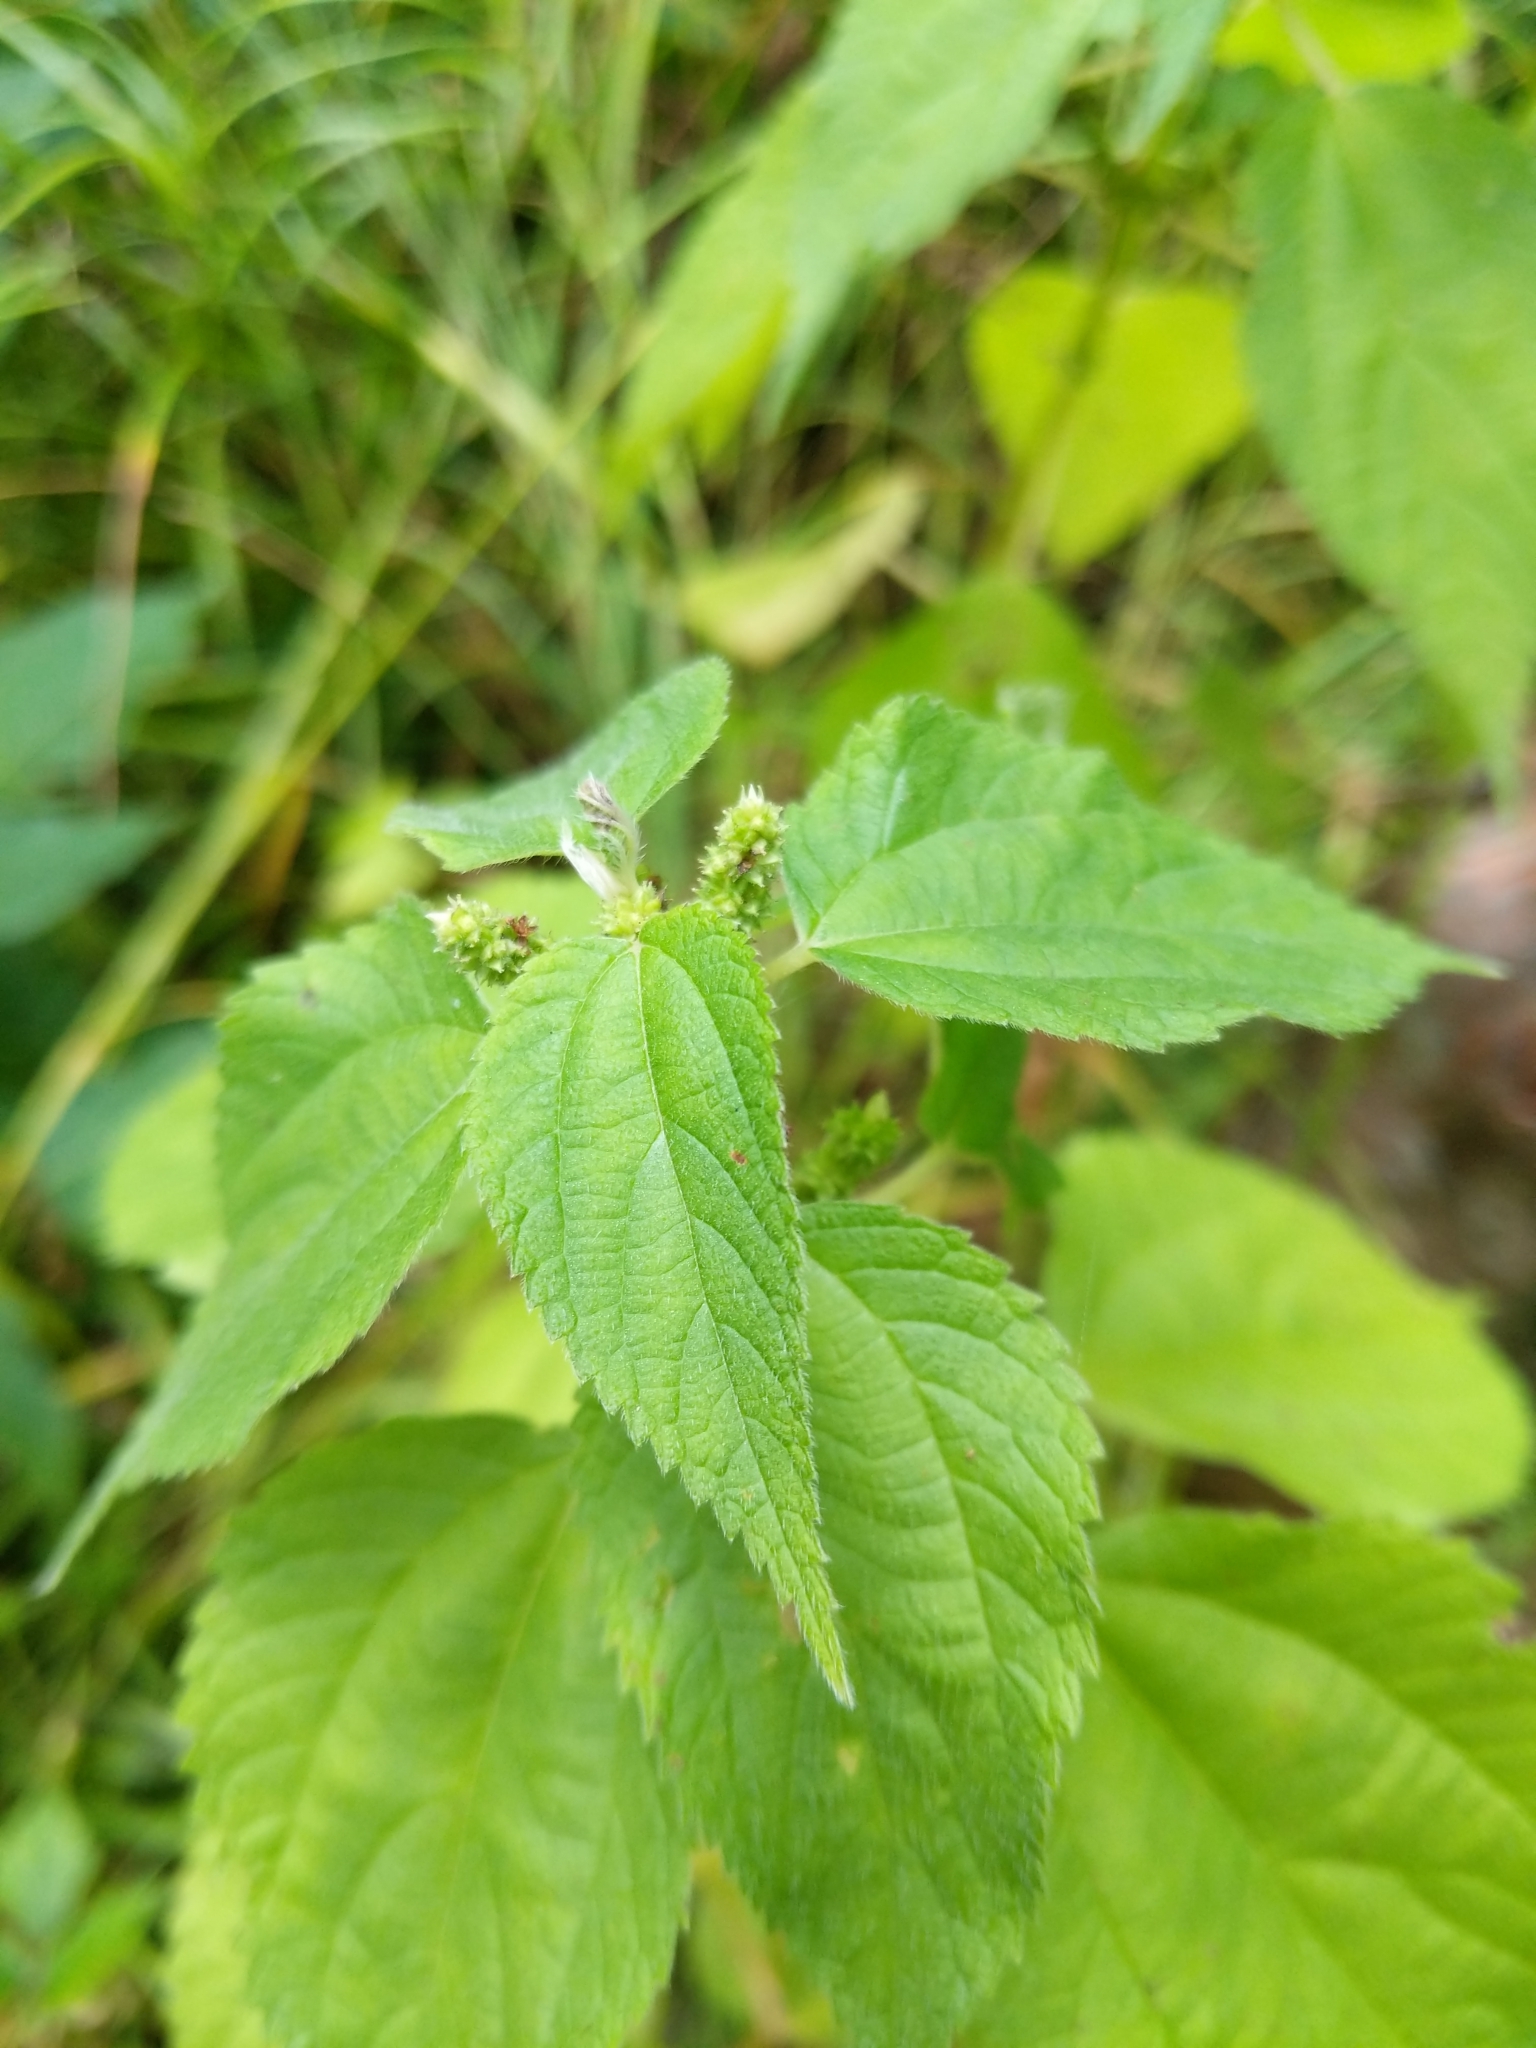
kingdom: Plantae
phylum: Tracheophyta
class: Magnoliopsida
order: Rosales
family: Urticaceae
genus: Boehmeria
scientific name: Boehmeria cylindrica
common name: Bog-hemp
